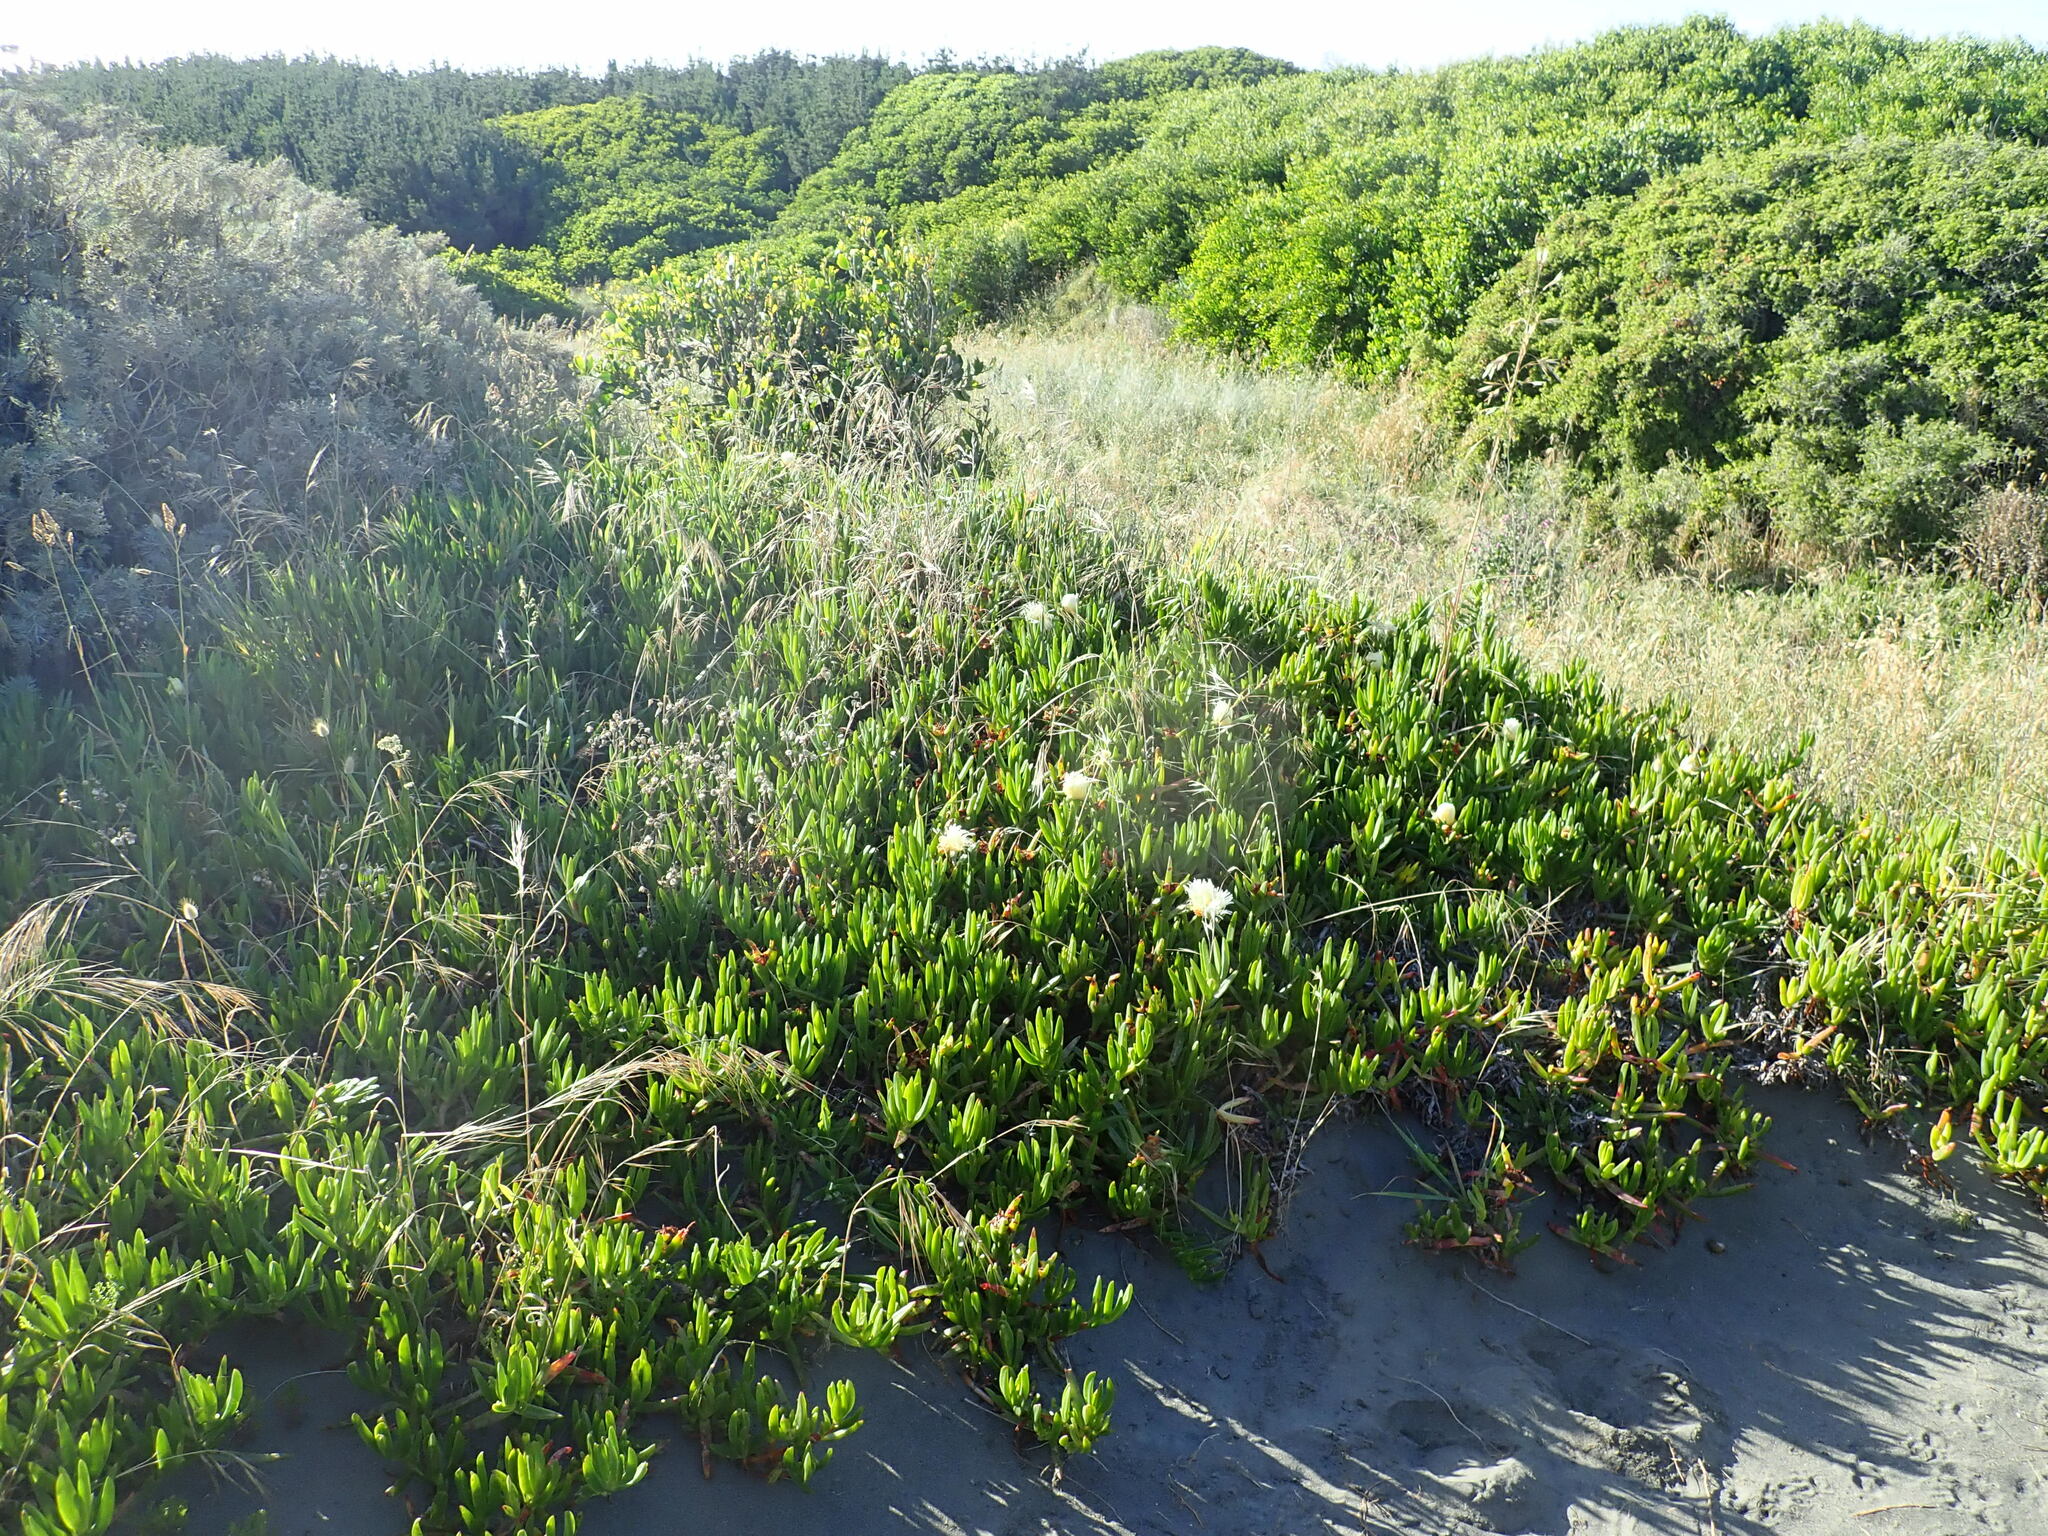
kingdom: Plantae
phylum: Tracheophyta
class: Magnoliopsida
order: Caryophyllales
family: Aizoaceae
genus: Carpobrotus
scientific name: Carpobrotus edulis
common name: Hottentot-fig
